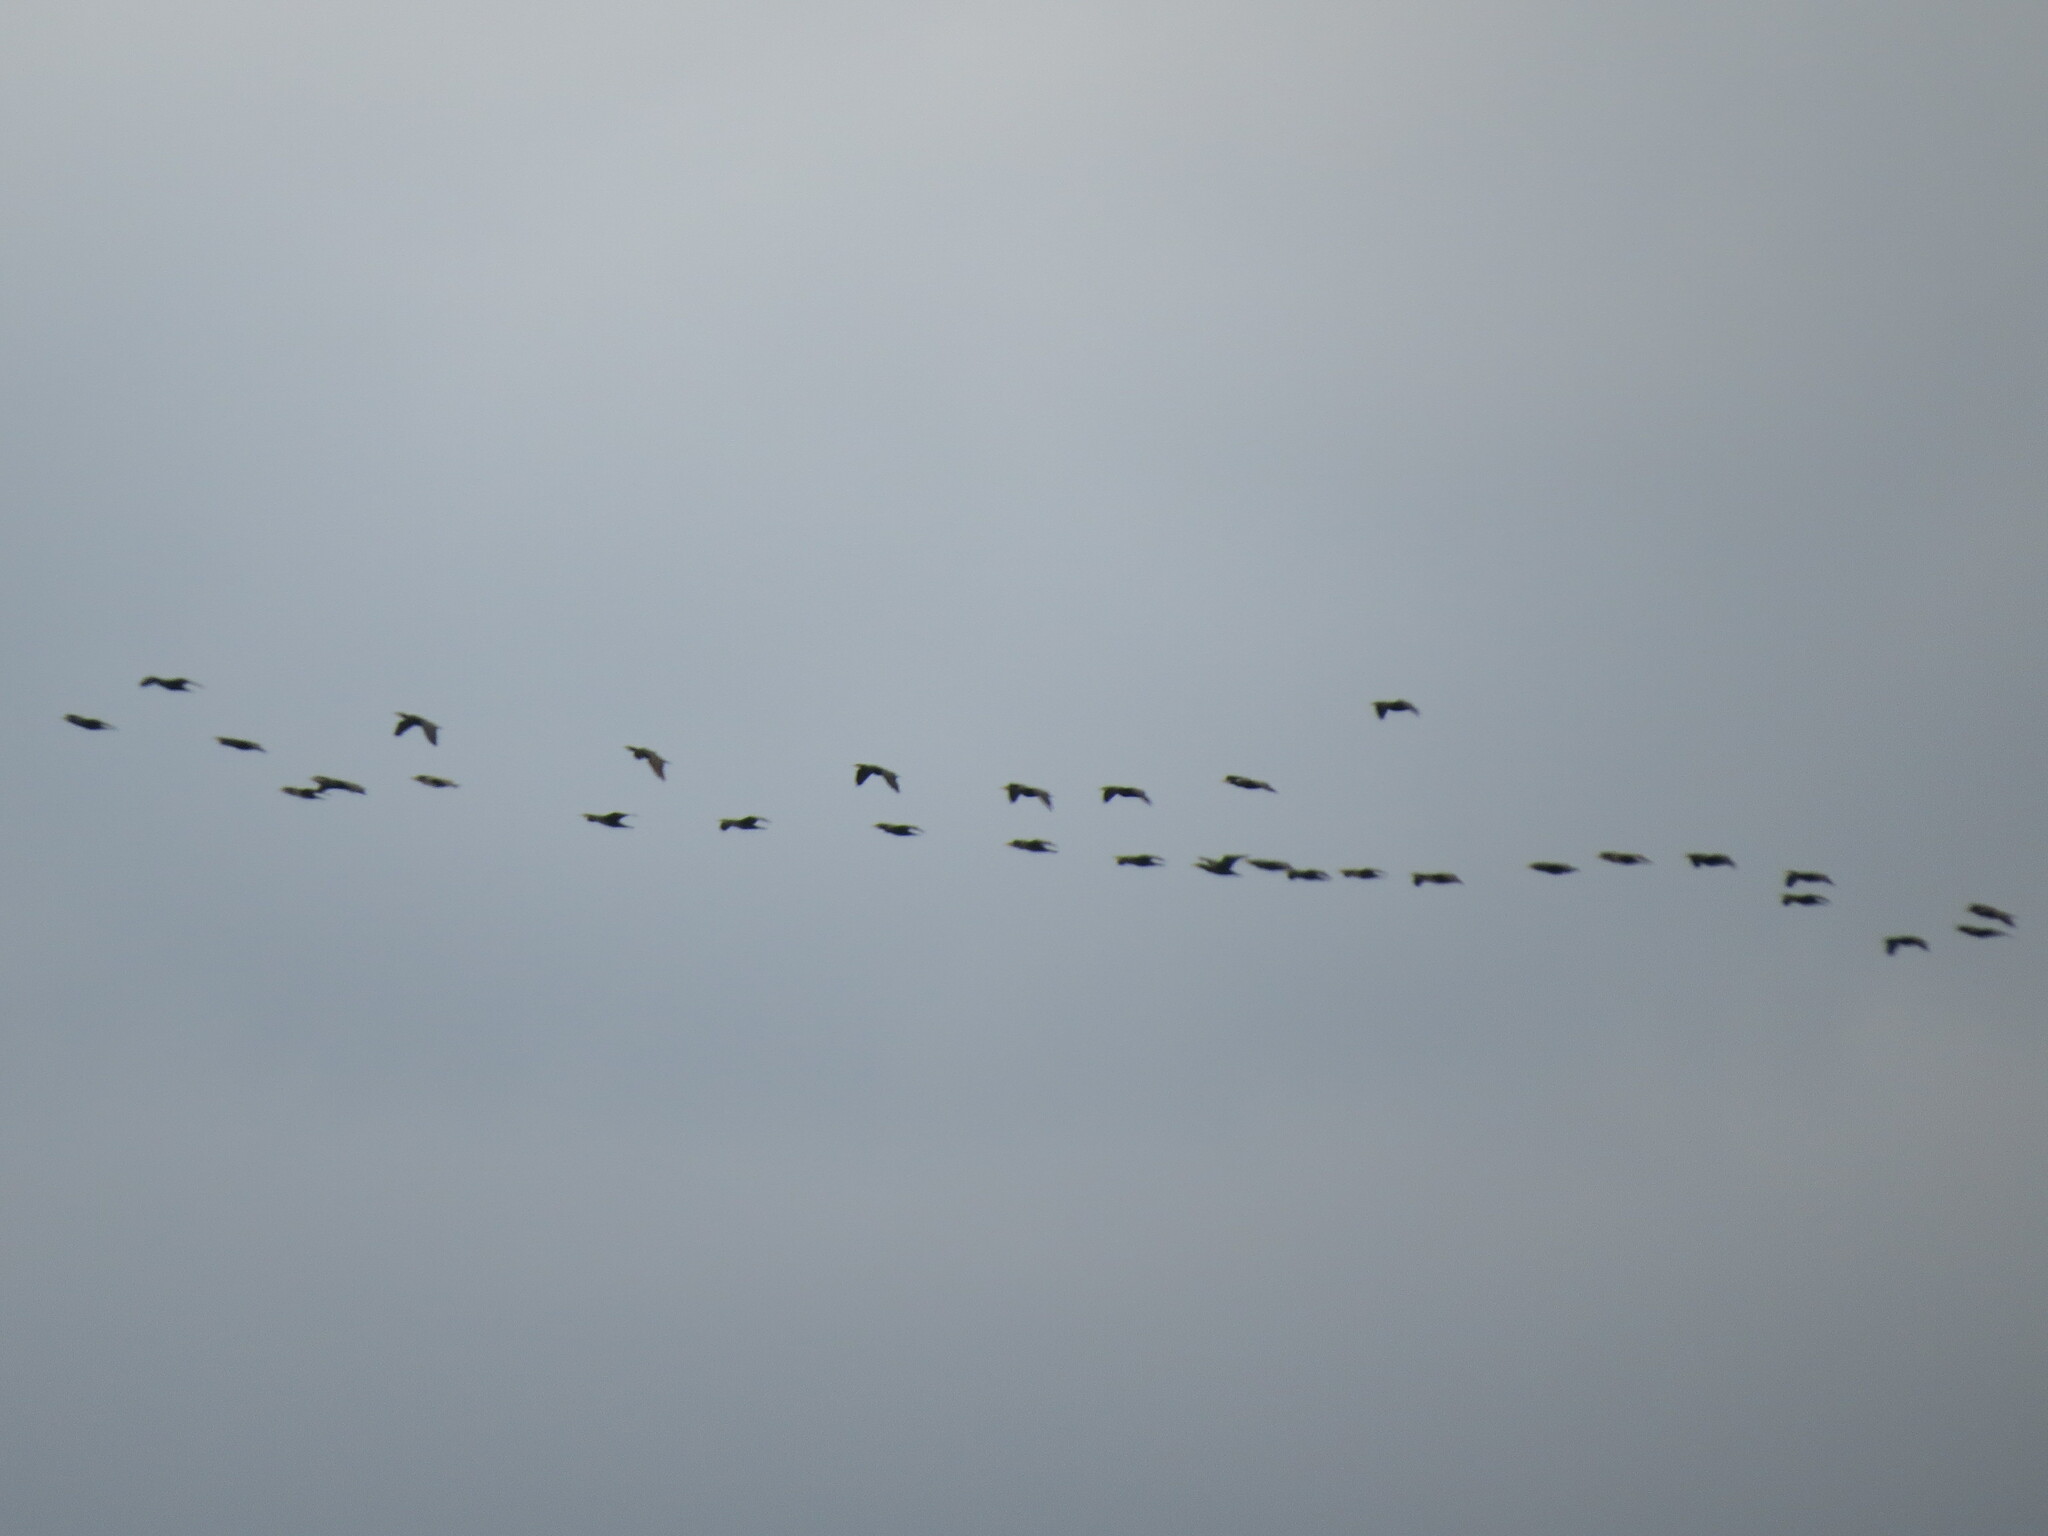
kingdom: Animalia
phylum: Chordata
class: Aves
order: Suliformes
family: Phalacrocoracidae
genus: Phalacrocorax
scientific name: Phalacrocorax carbo
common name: Great cormorant
